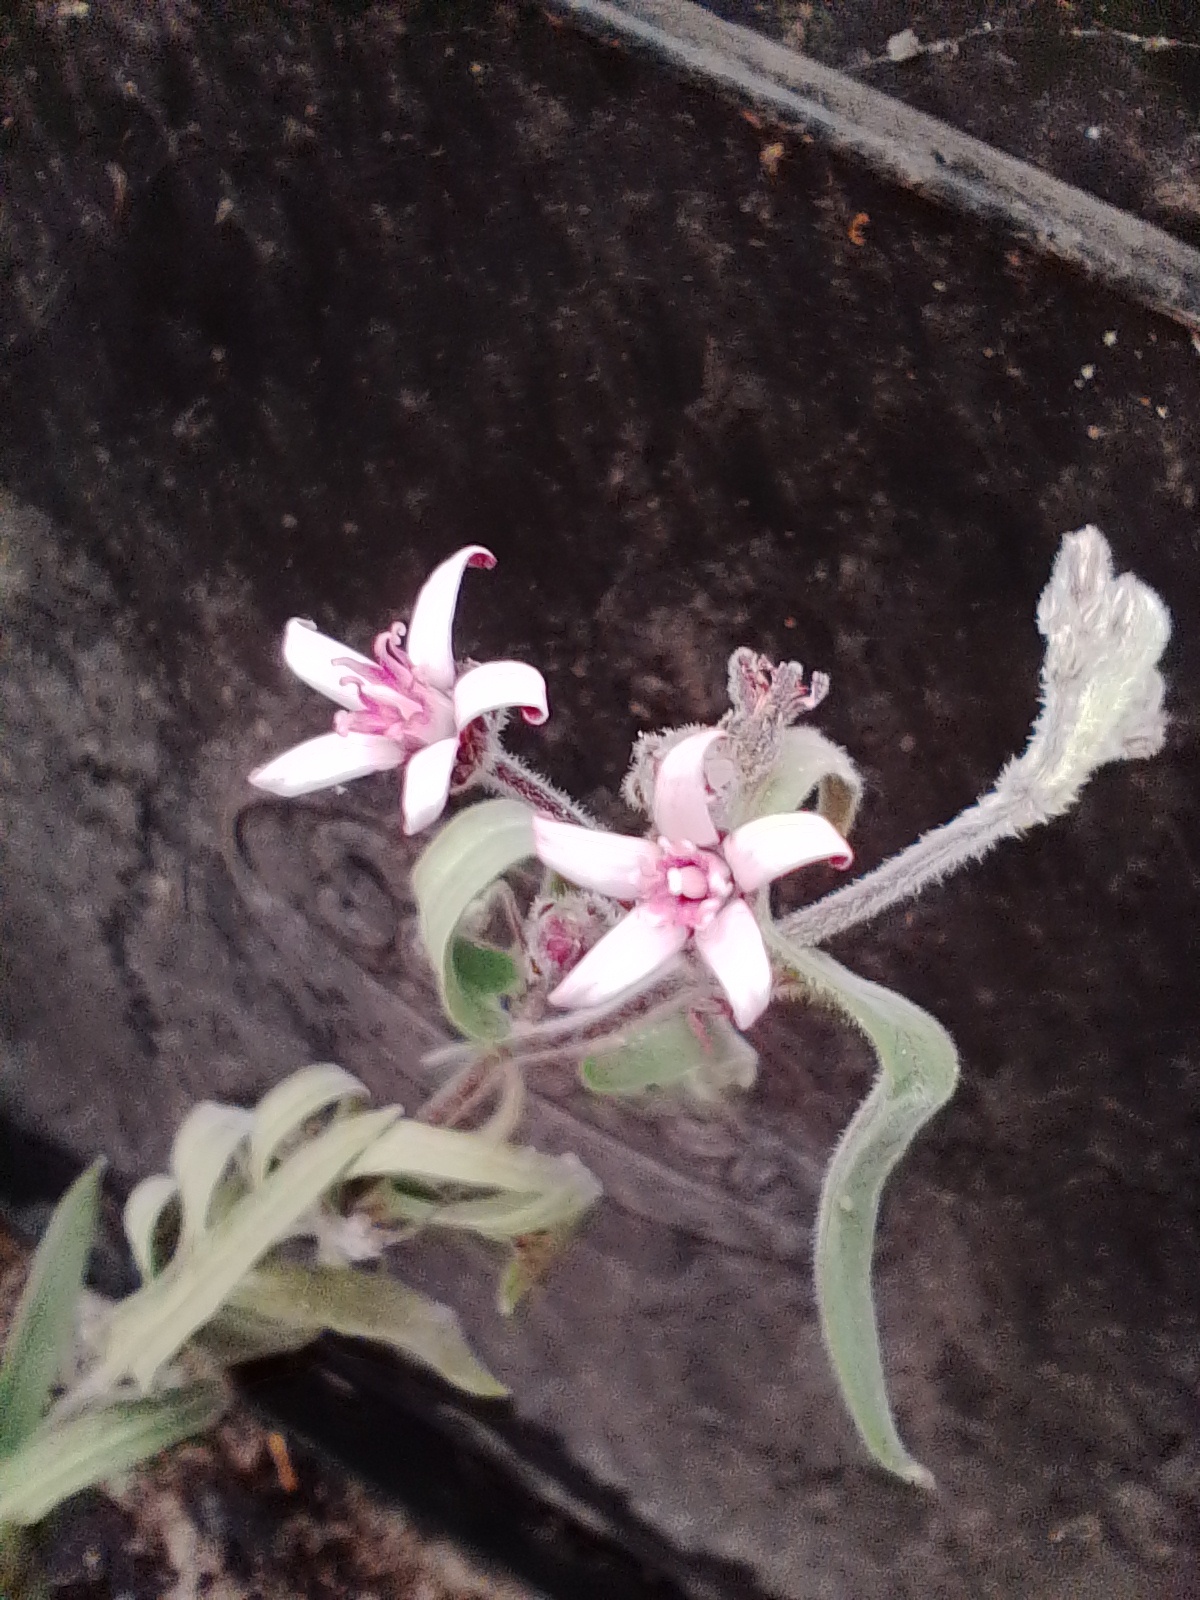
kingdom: Plantae
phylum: Tracheophyta
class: Magnoliopsida
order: Gentianales
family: Apocynaceae
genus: Oxypetalum
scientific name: Oxypetalum solanoides
